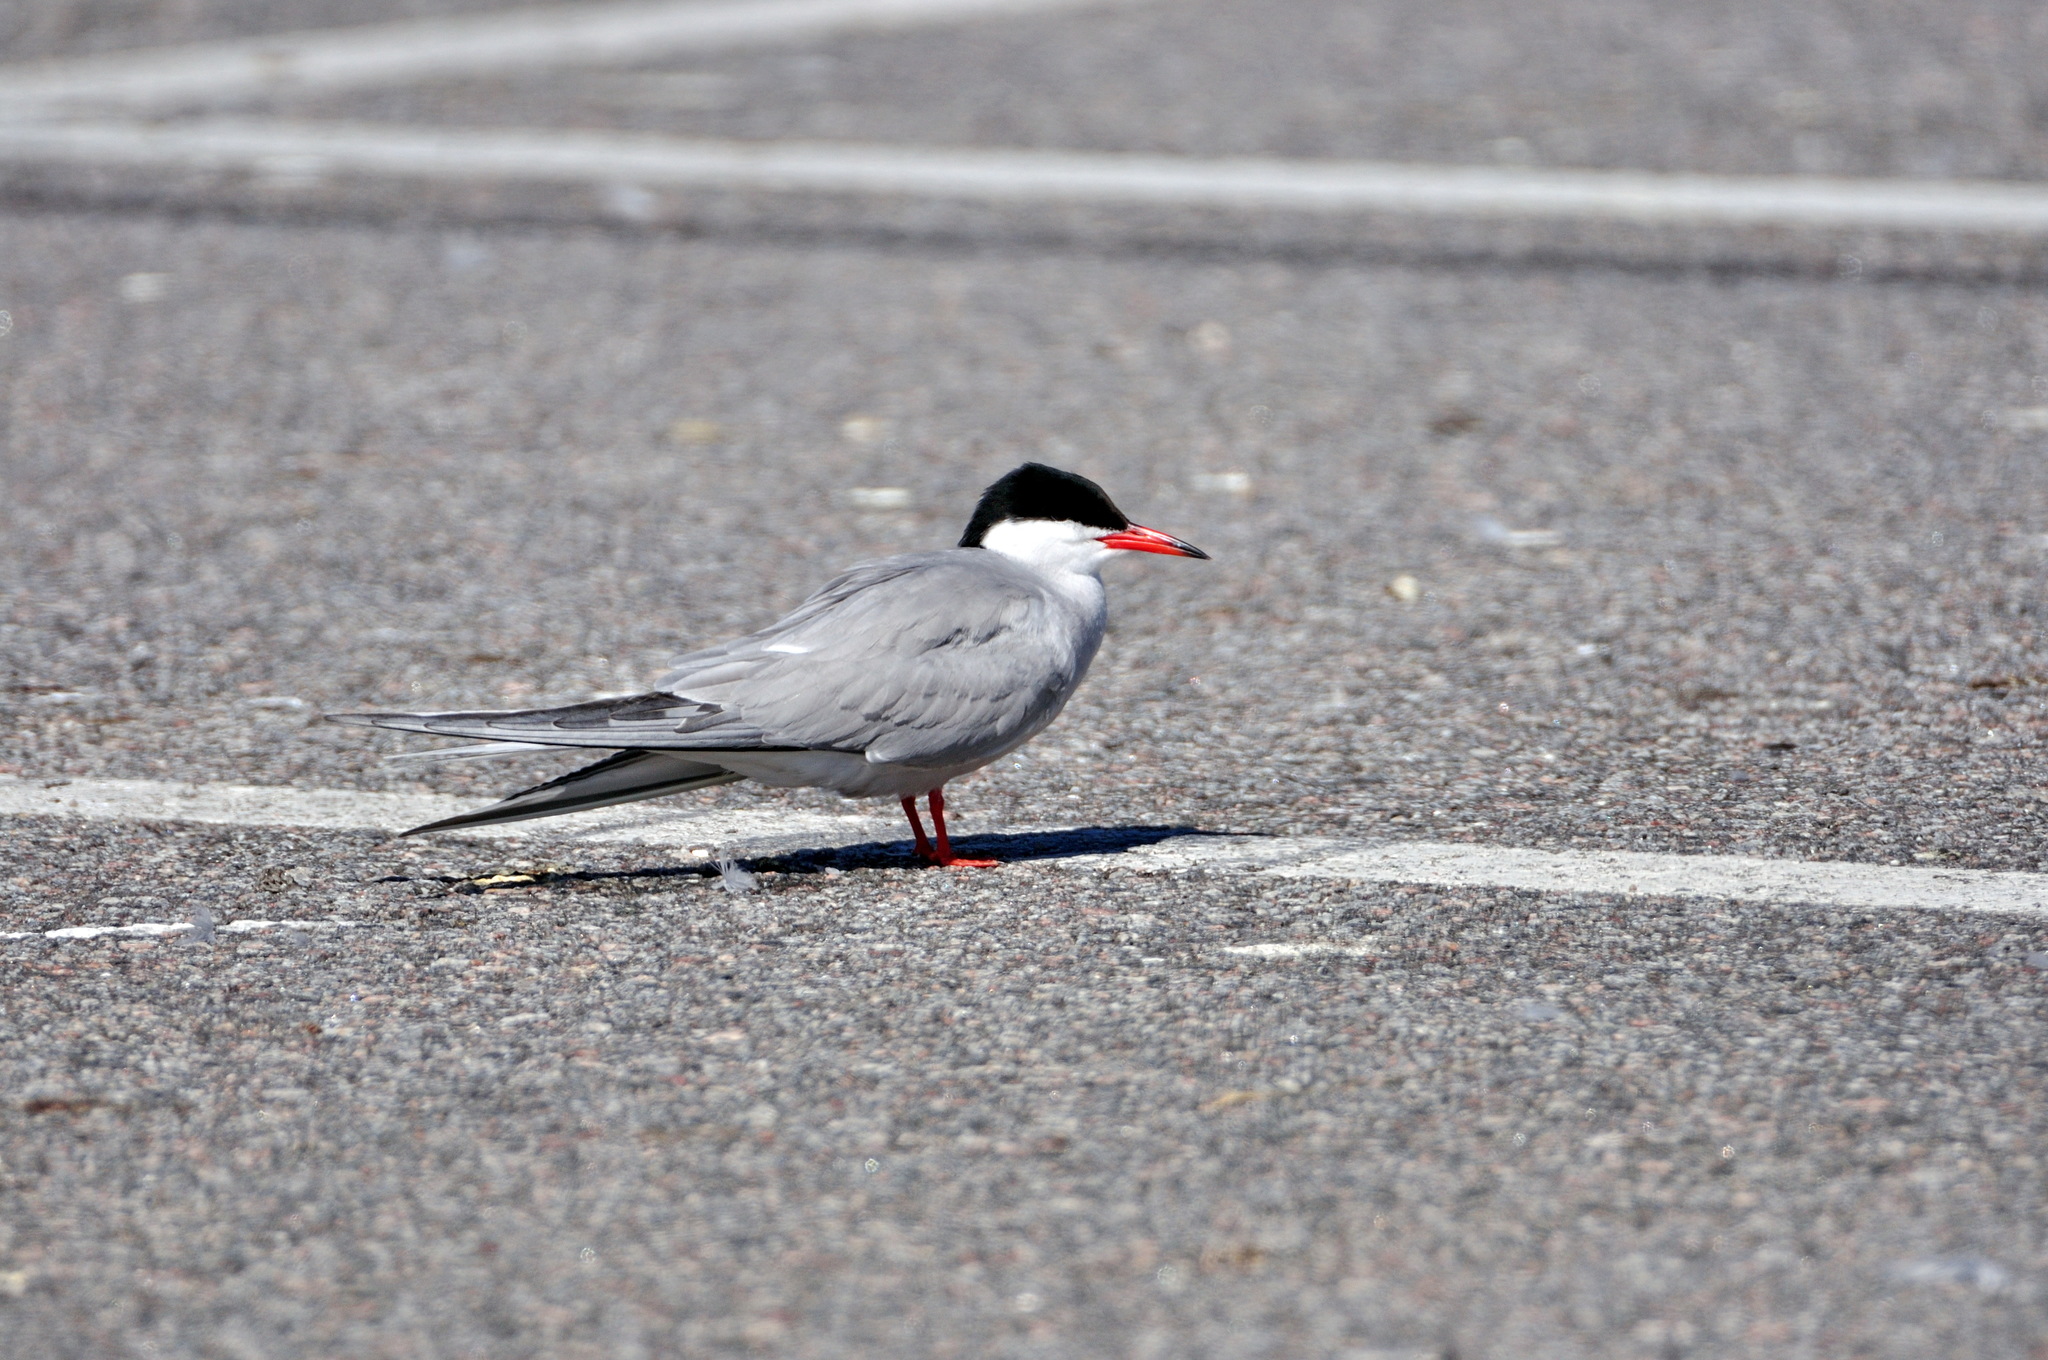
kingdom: Animalia
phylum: Chordata
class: Aves
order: Charadriiformes
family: Laridae
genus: Sterna
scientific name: Sterna hirundo
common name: Common tern
